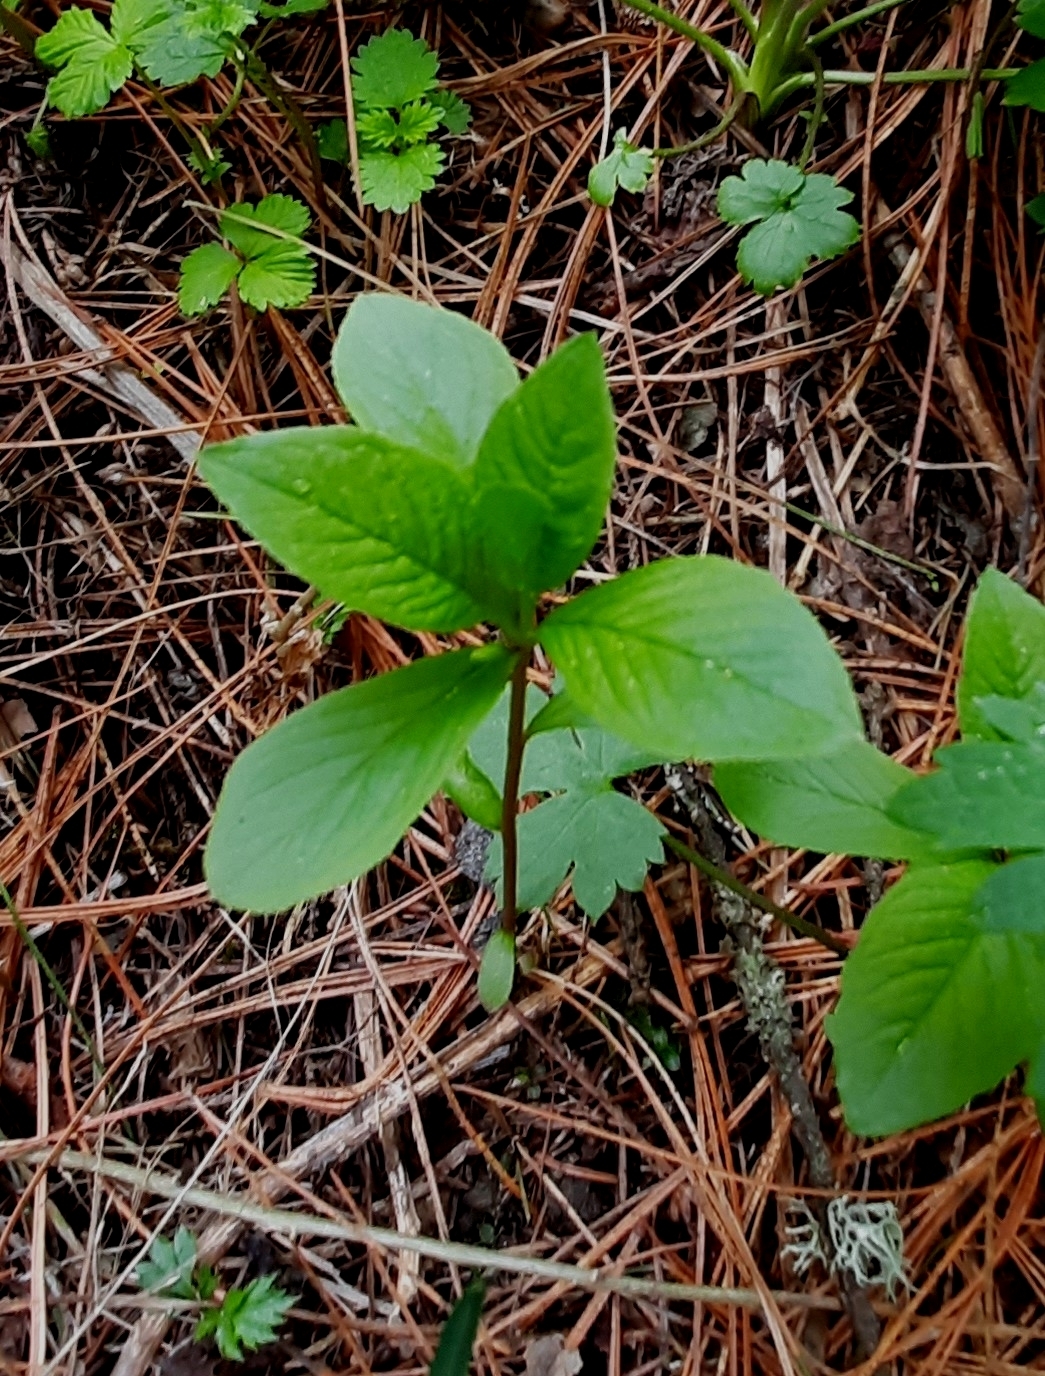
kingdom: Plantae
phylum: Tracheophyta
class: Magnoliopsida
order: Ericales
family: Primulaceae
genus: Lysimachia
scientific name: Lysimachia europaea
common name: Arctic starflower
